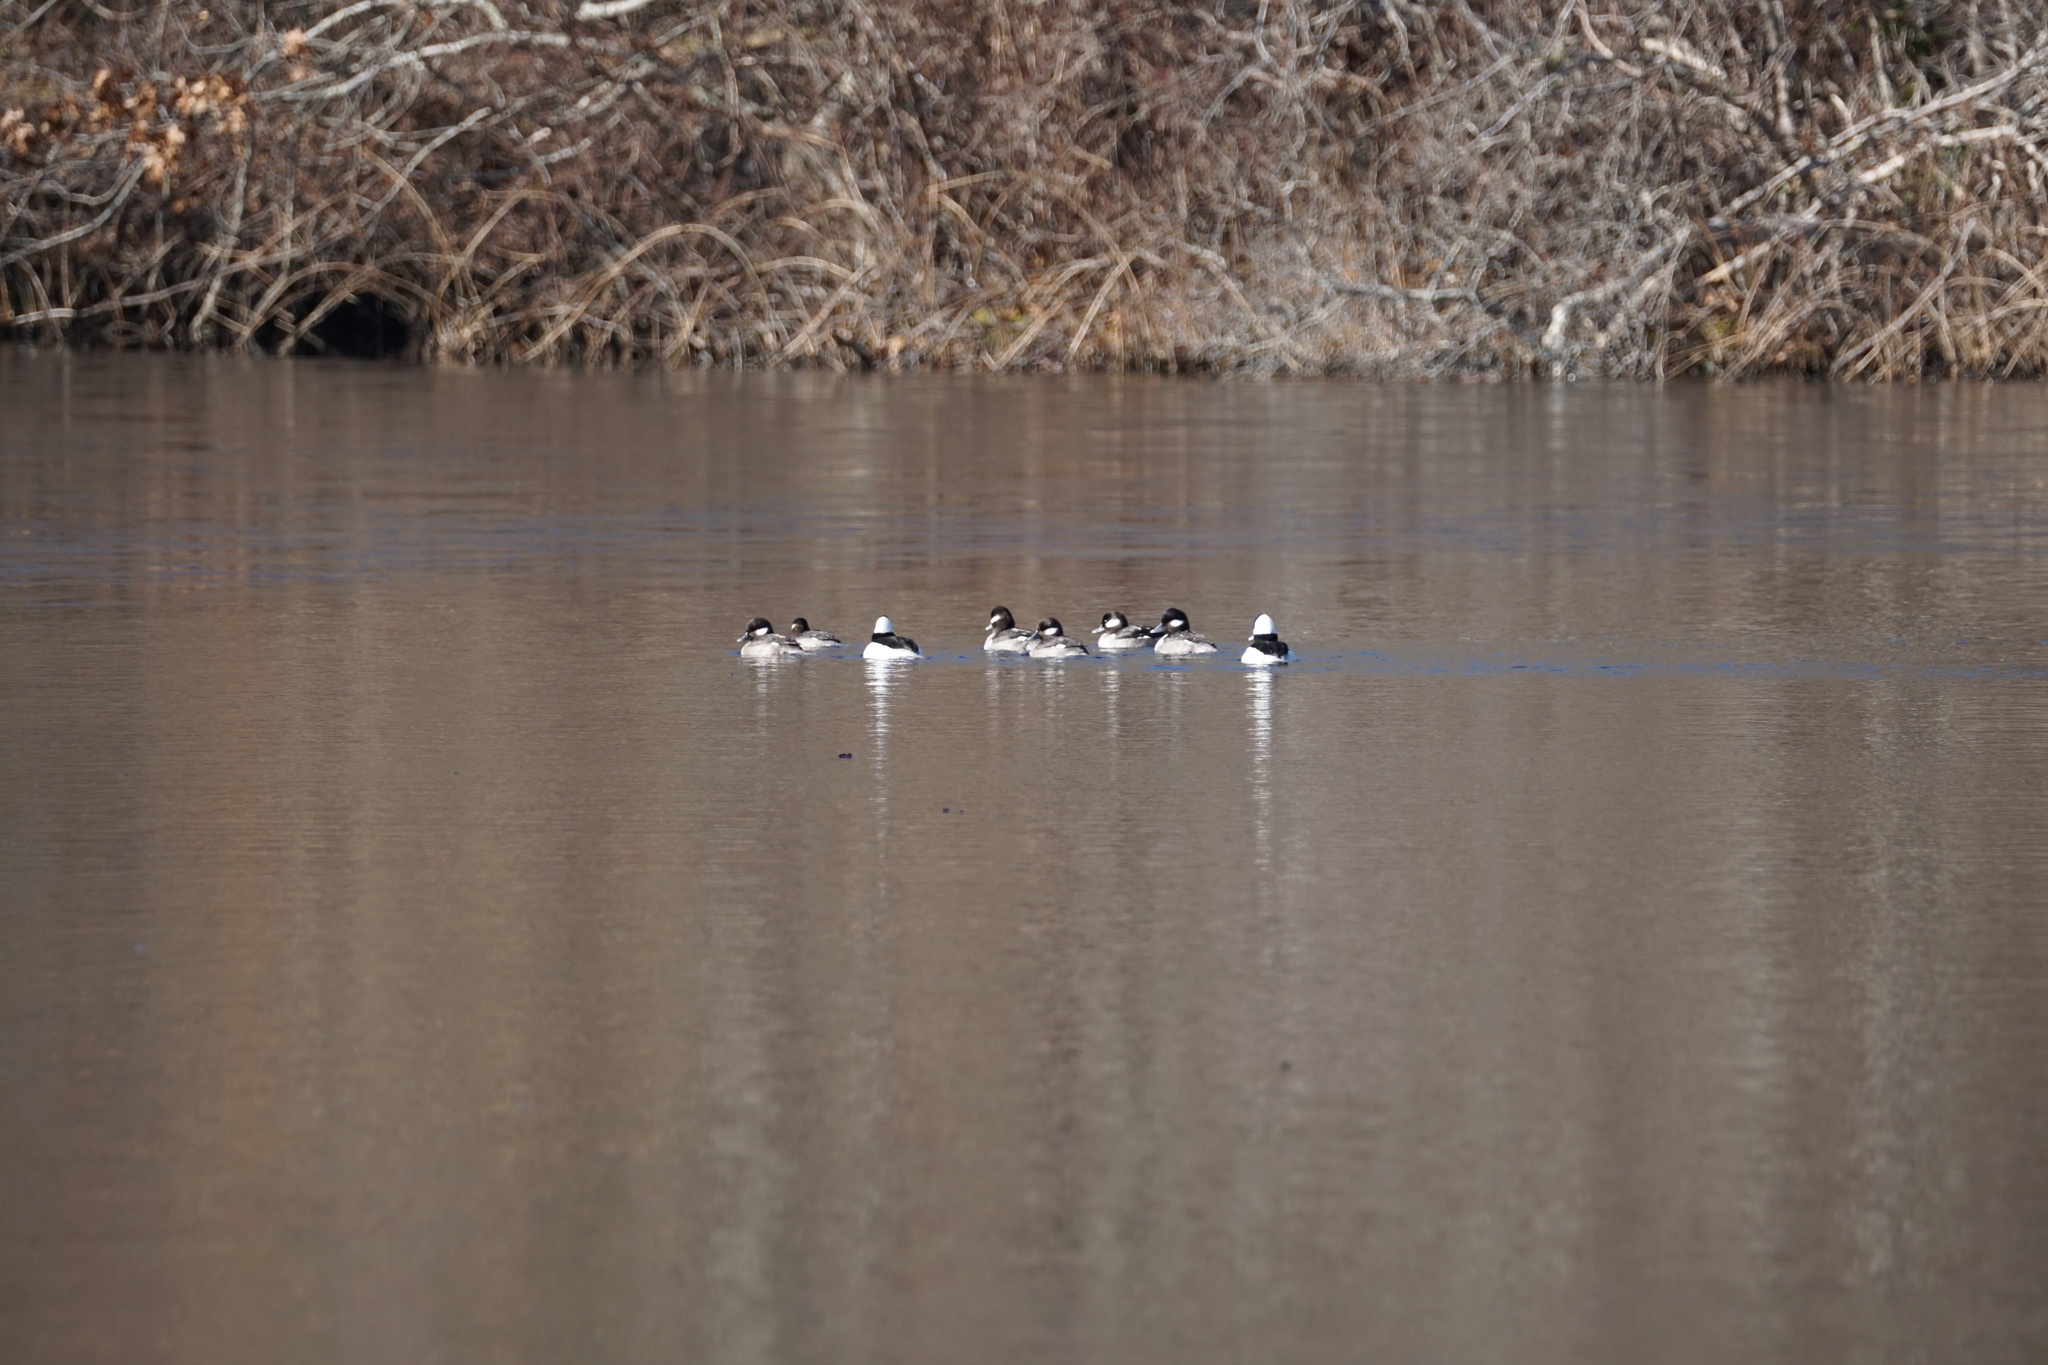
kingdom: Animalia
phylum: Chordata
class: Aves
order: Anseriformes
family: Anatidae
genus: Bucephala
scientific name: Bucephala albeola
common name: Bufflehead
